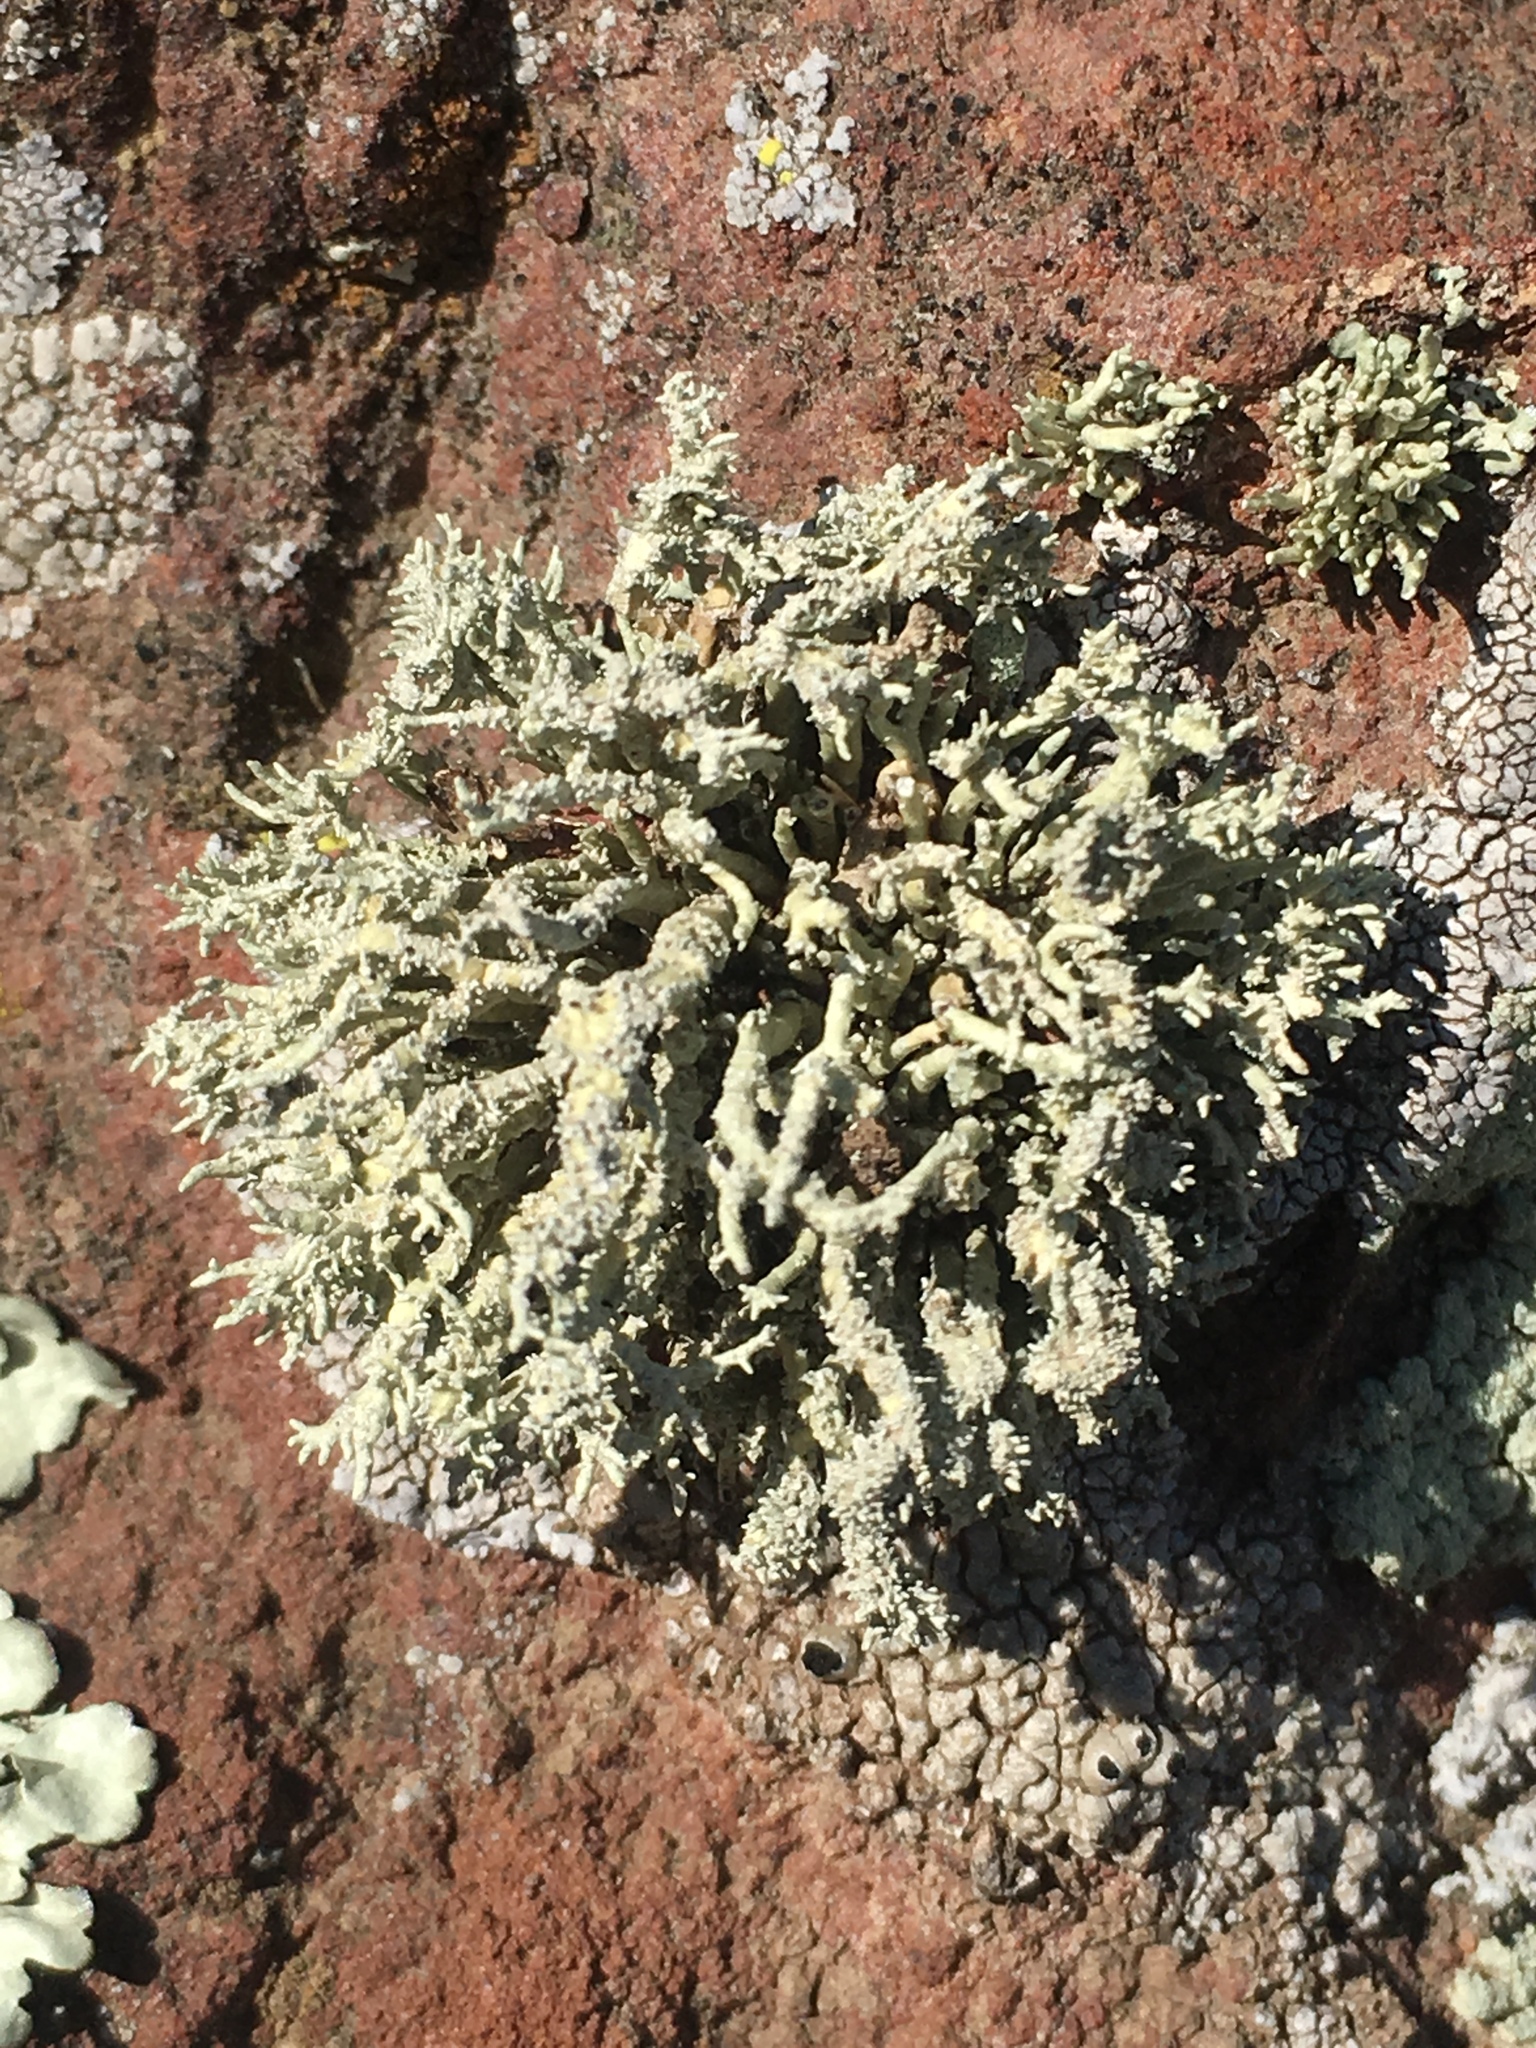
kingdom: Fungi
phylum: Ascomycota
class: Lecanoromycetes
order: Lecanorales
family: Ramalinaceae
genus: Niebla
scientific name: Niebla isidiaescens
